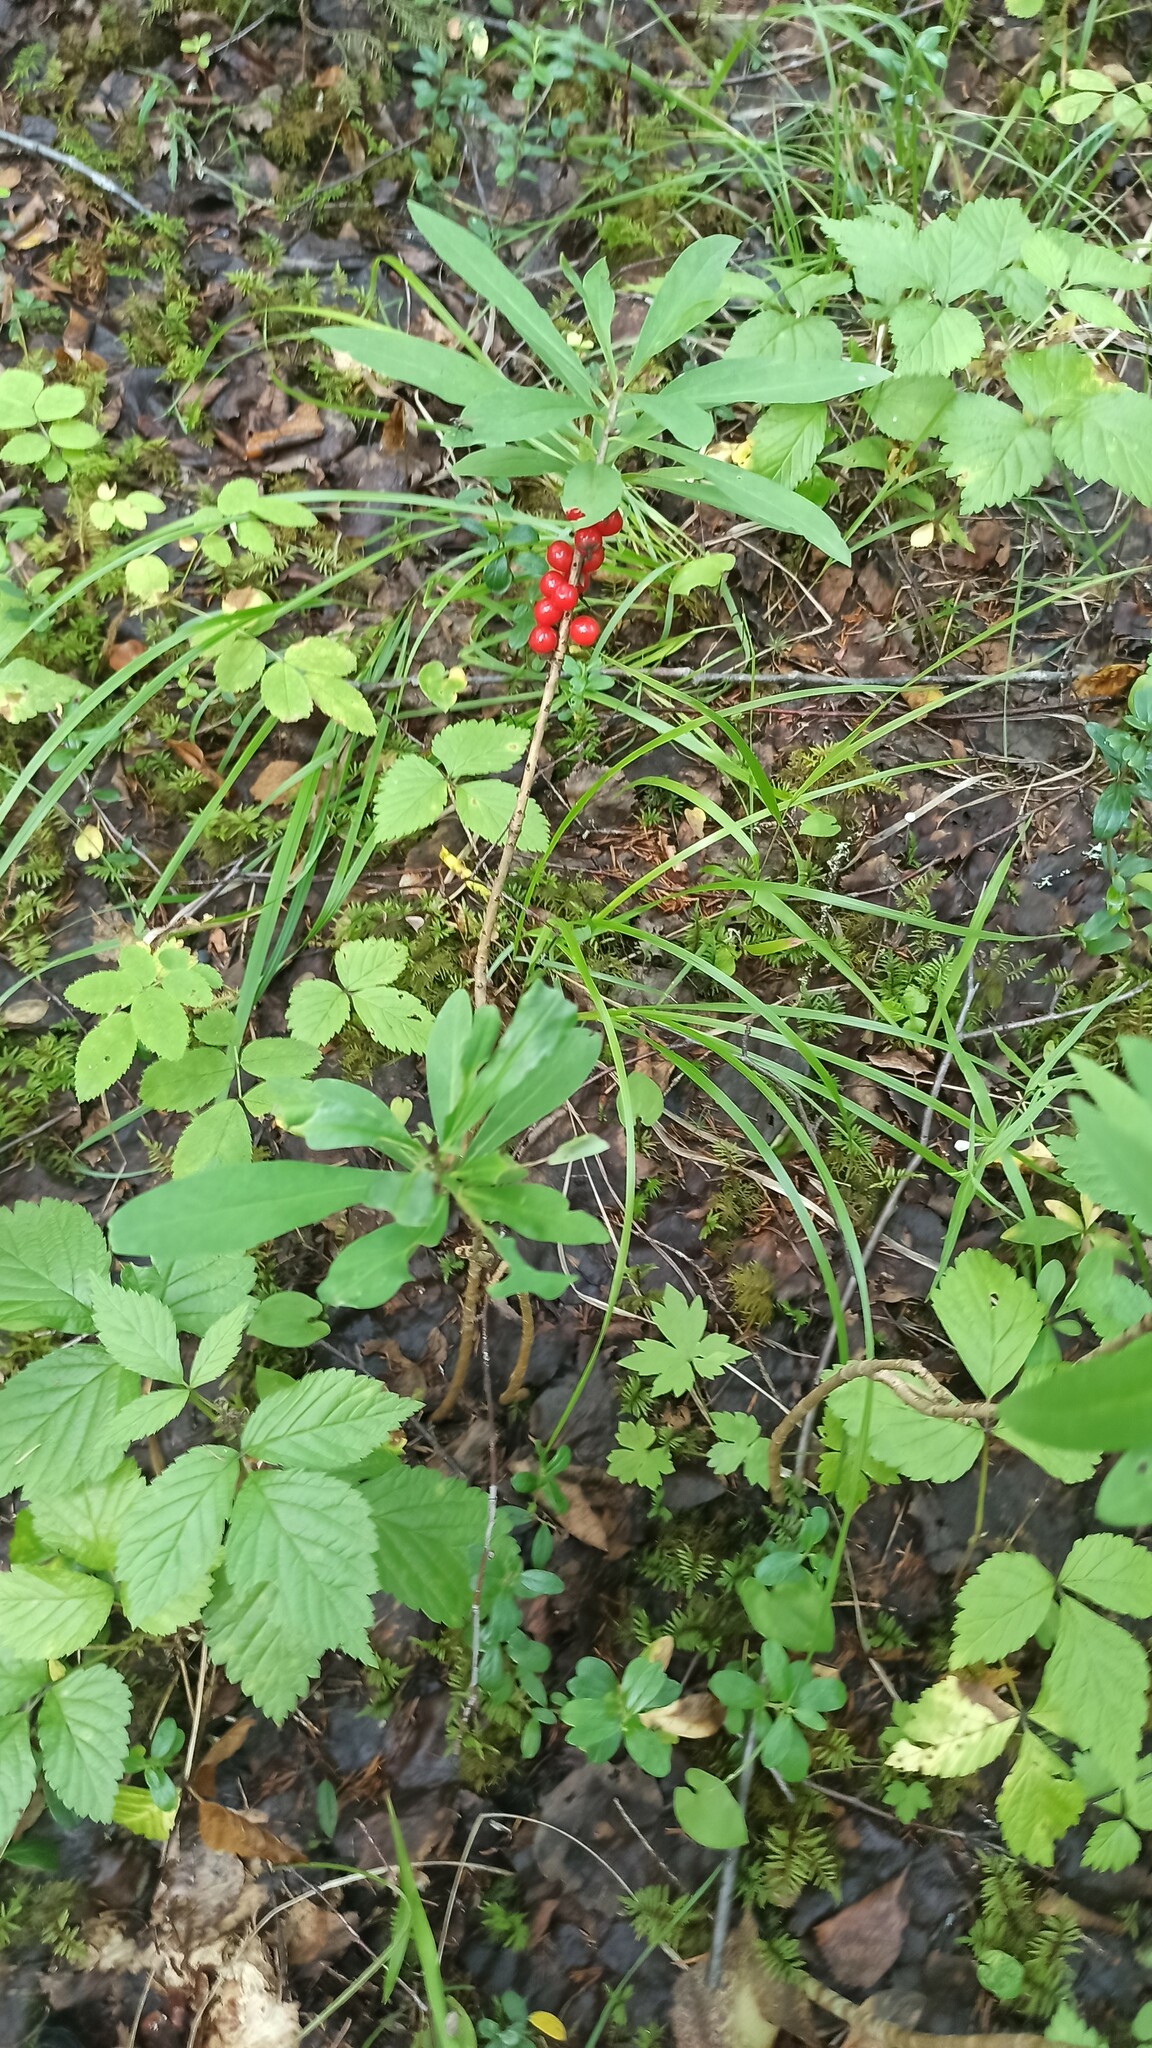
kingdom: Plantae
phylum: Tracheophyta
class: Magnoliopsida
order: Malvales
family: Thymelaeaceae
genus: Daphne
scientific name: Daphne mezereum
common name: Mezereon
